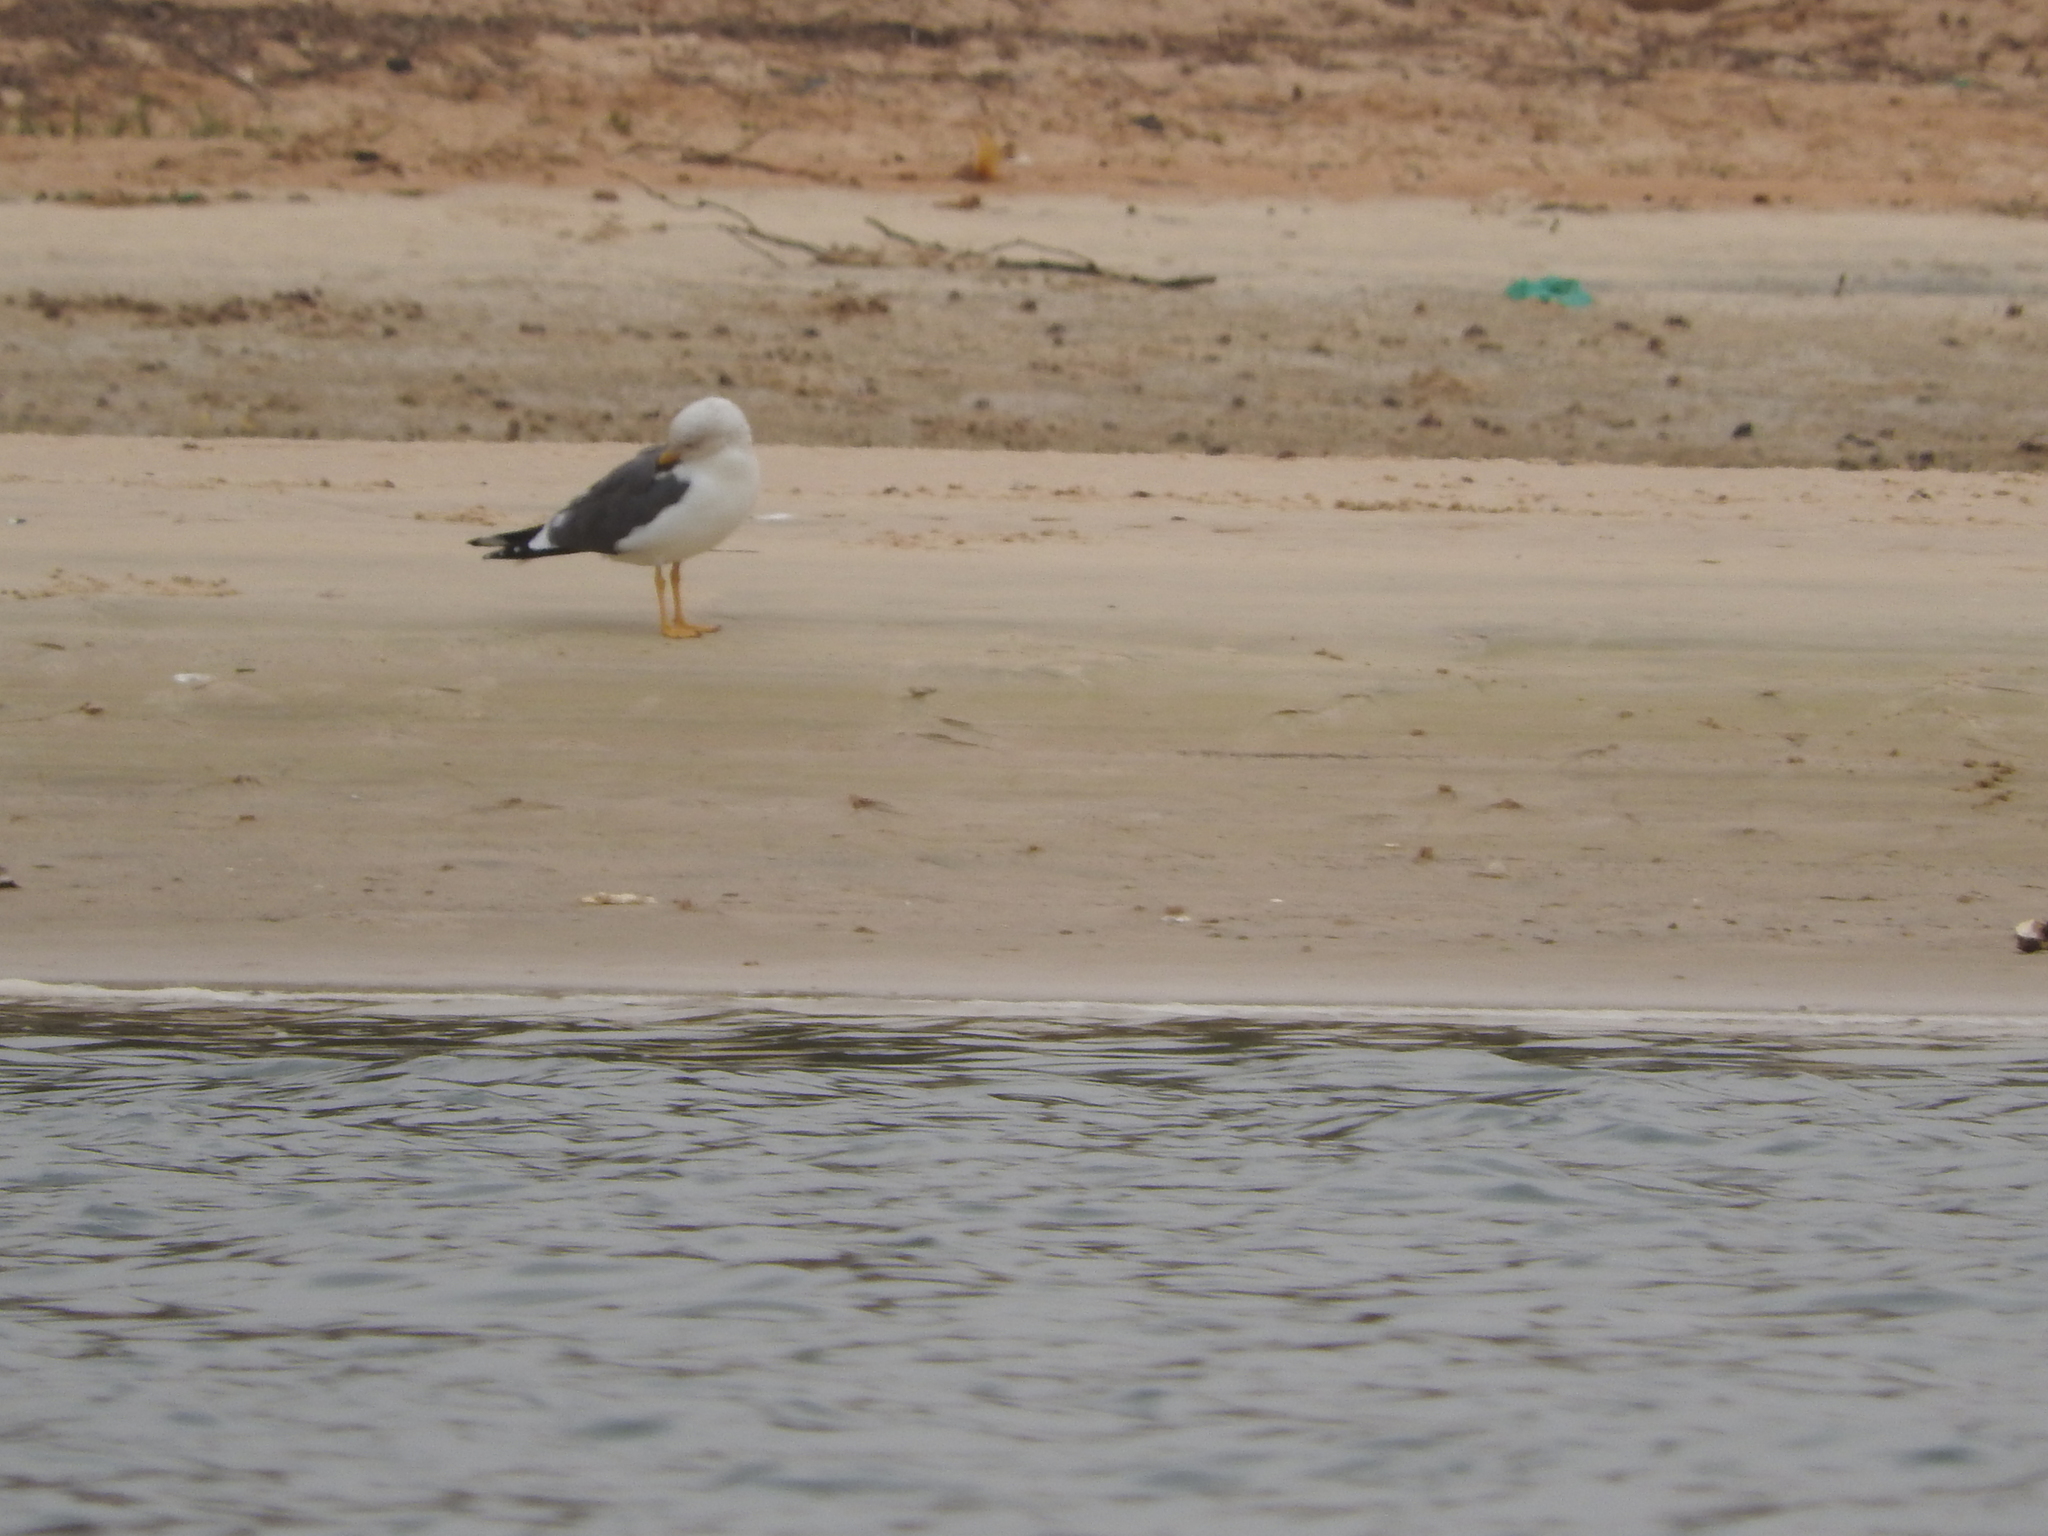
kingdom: Animalia
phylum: Chordata
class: Aves
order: Charadriiformes
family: Laridae
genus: Larus
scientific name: Larus fuscus
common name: Lesser black-backed gull
